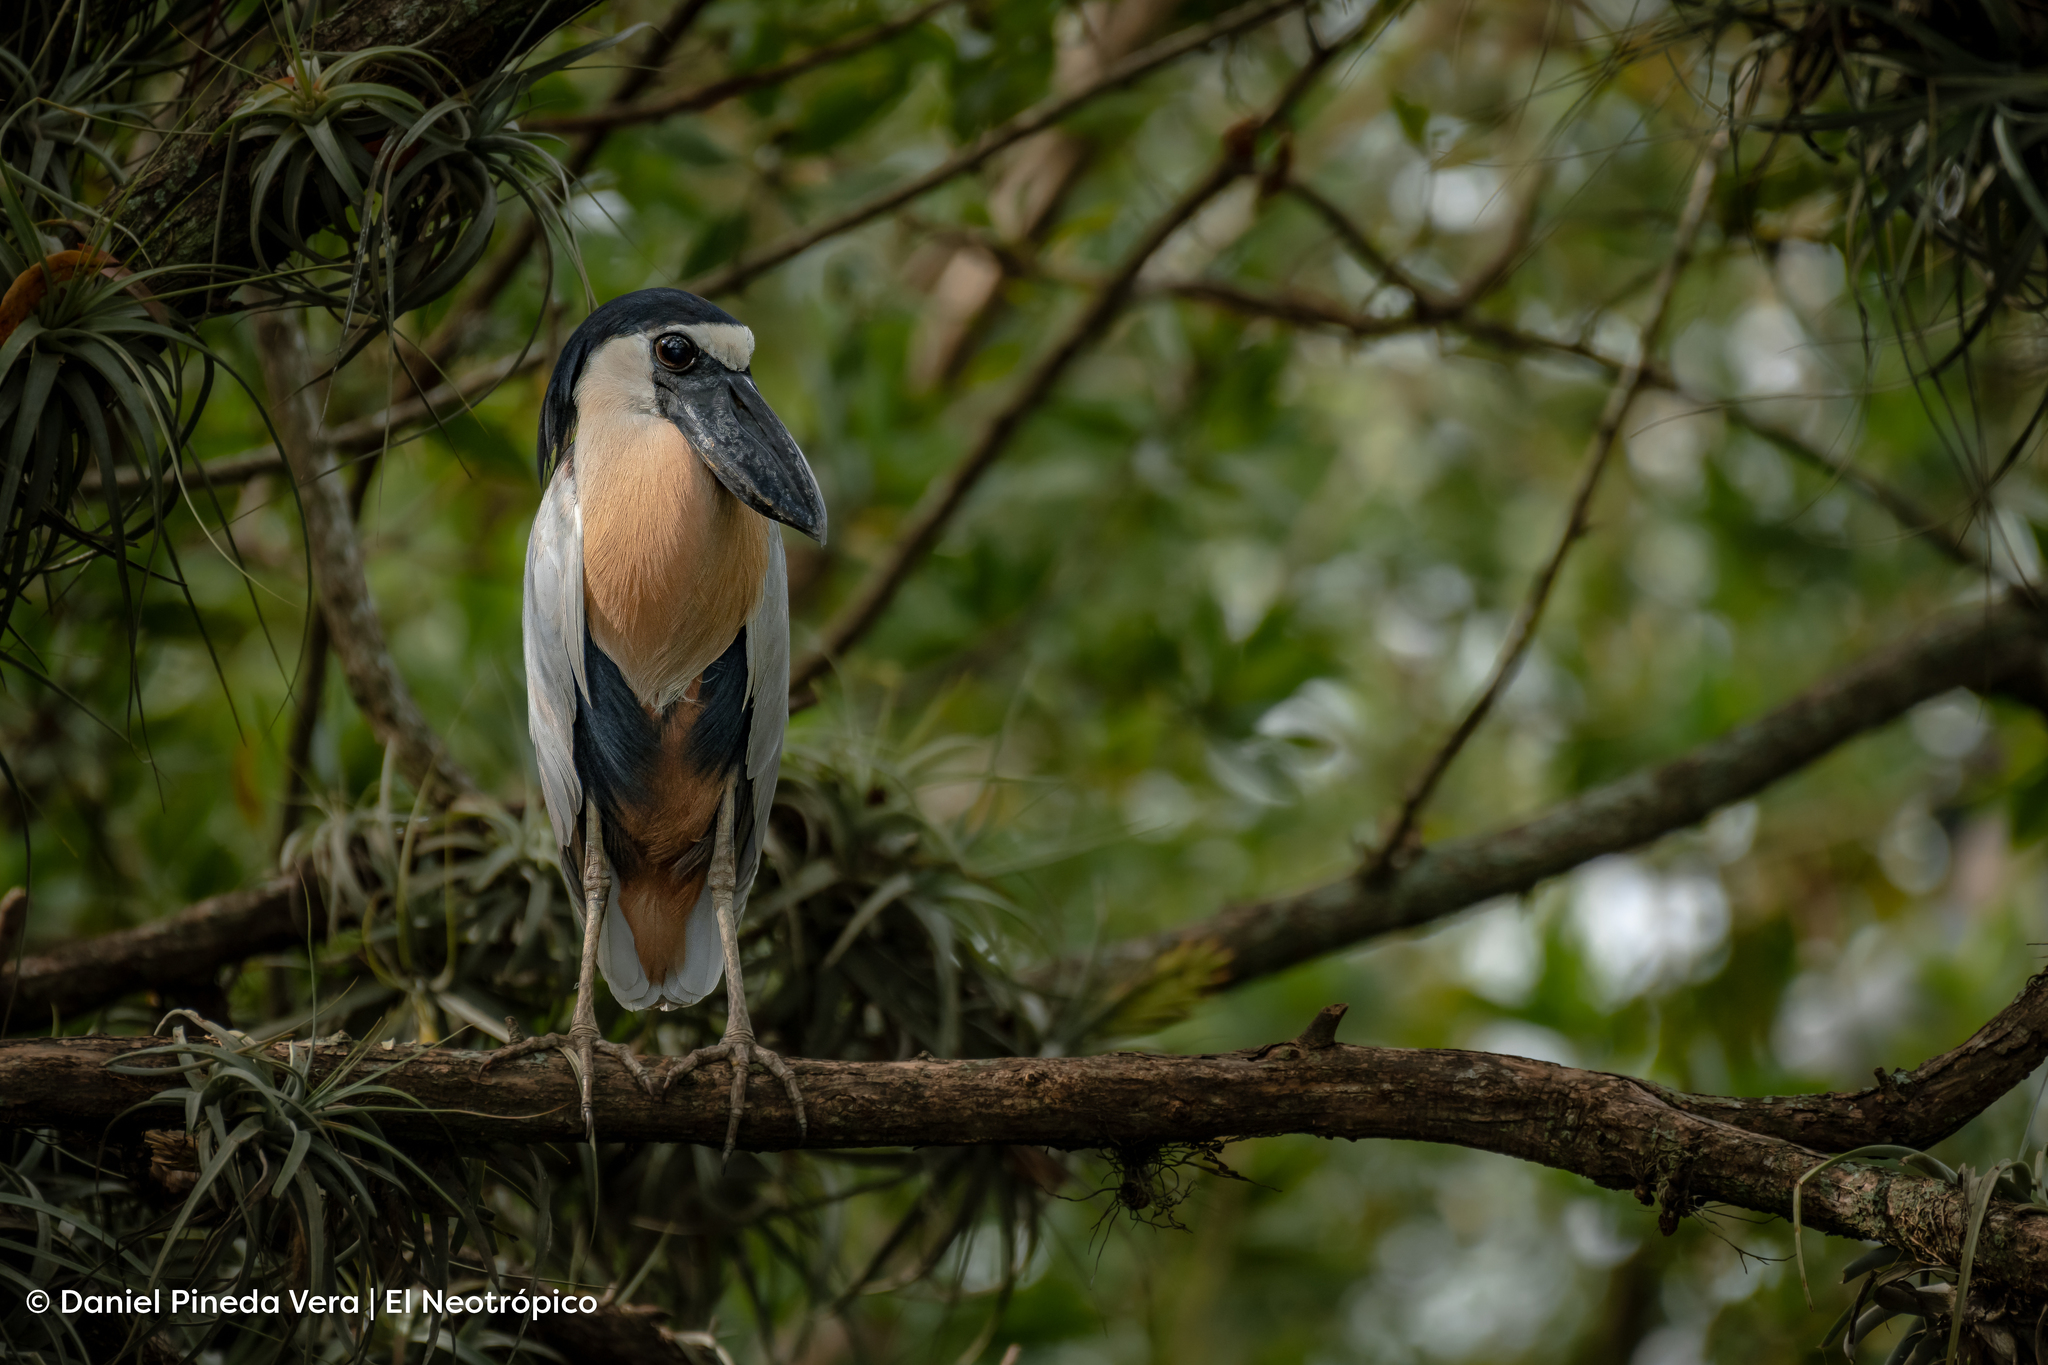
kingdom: Animalia
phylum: Chordata
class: Aves
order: Pelecaniformes
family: Ardeidae
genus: Cochlearius
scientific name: Cochlearius cochlearius
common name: Boat-billed heron
